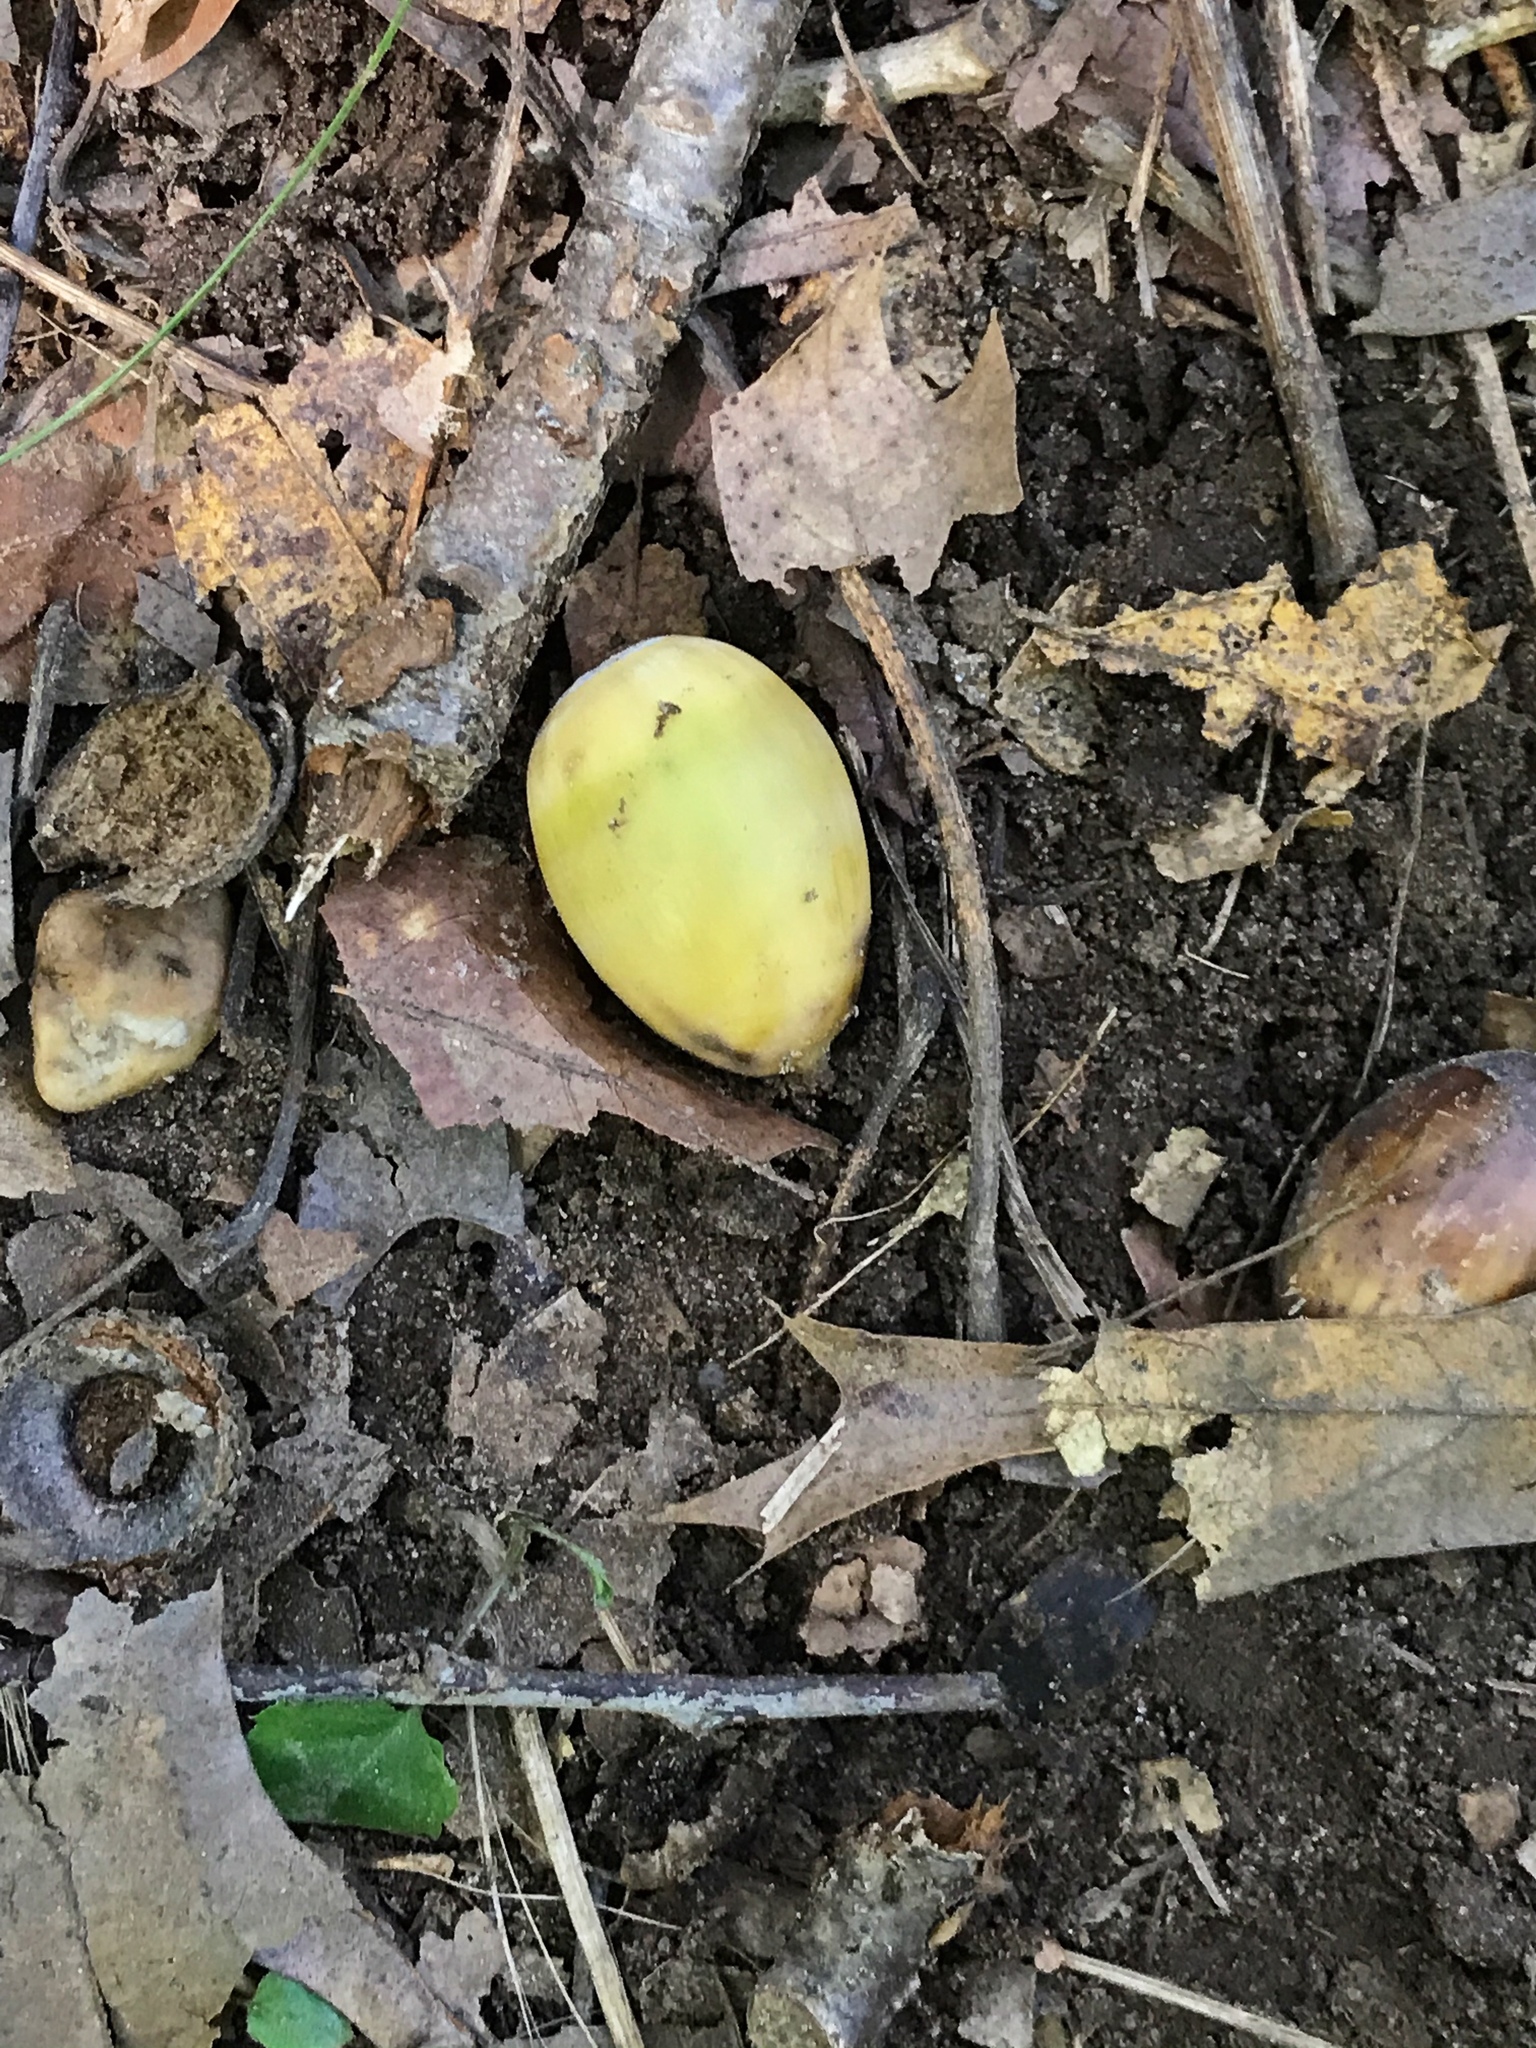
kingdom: Plantae
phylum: Tracheophyta
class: Magnoliopsida
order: Fagales
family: Fagaceae
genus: Quercus
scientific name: Quercus alba
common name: White oak
